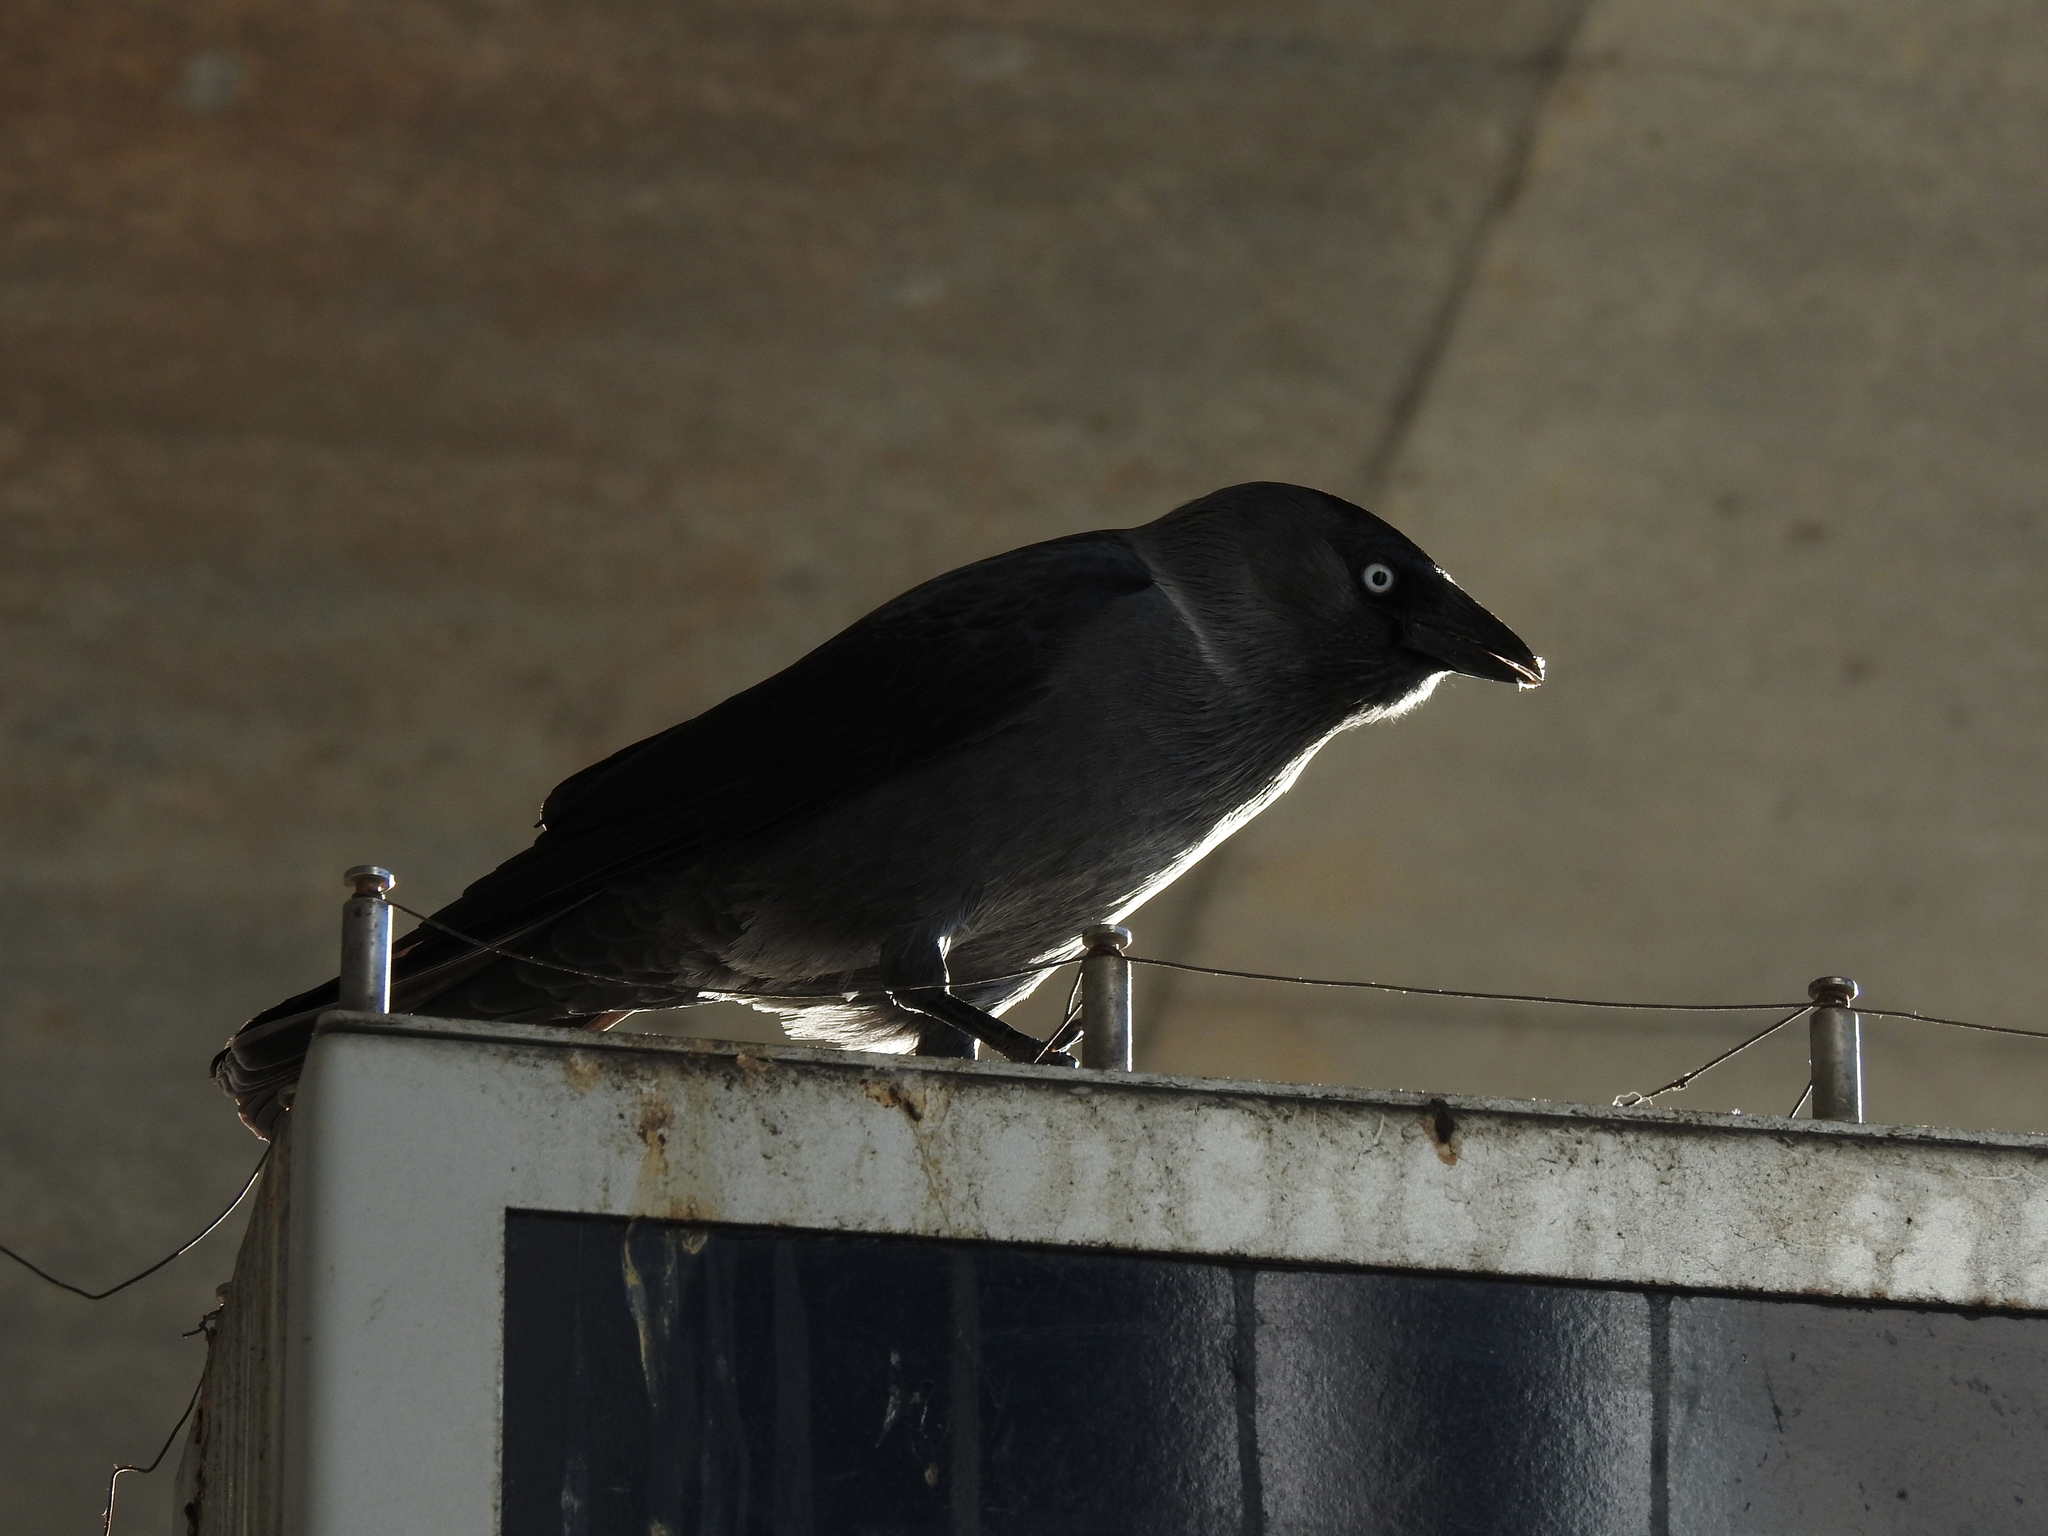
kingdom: Animalia
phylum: Chordata
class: Aves
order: Passeriformes
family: Corvidae
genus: Coloeus
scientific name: Coloeus monedula
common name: Western jackdaw
